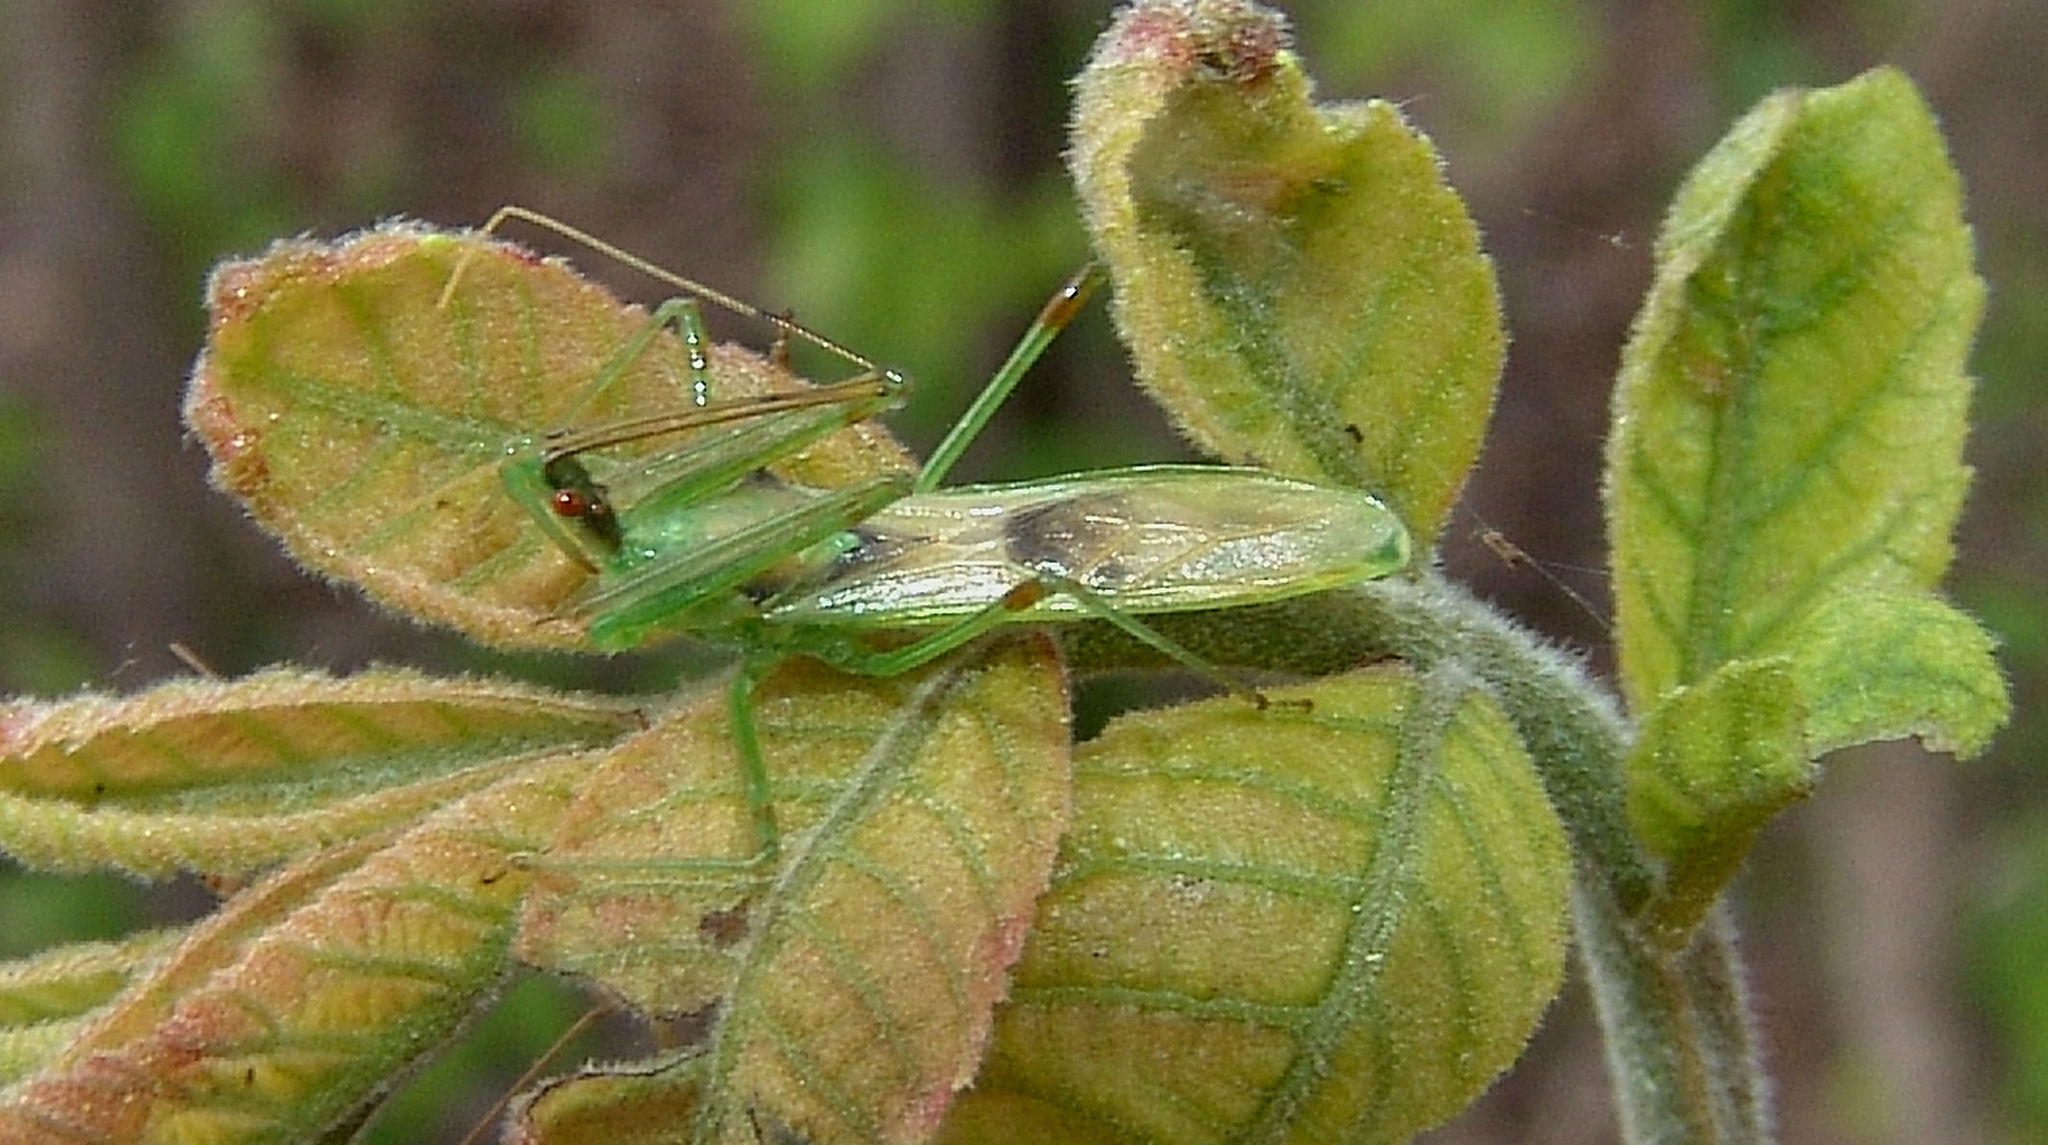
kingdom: Animalia
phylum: Arthropoda
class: Insecta
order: Hemiptera
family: Reduviidae
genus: Zelus
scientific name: Zelus luridus
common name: Pale green assassin bug
